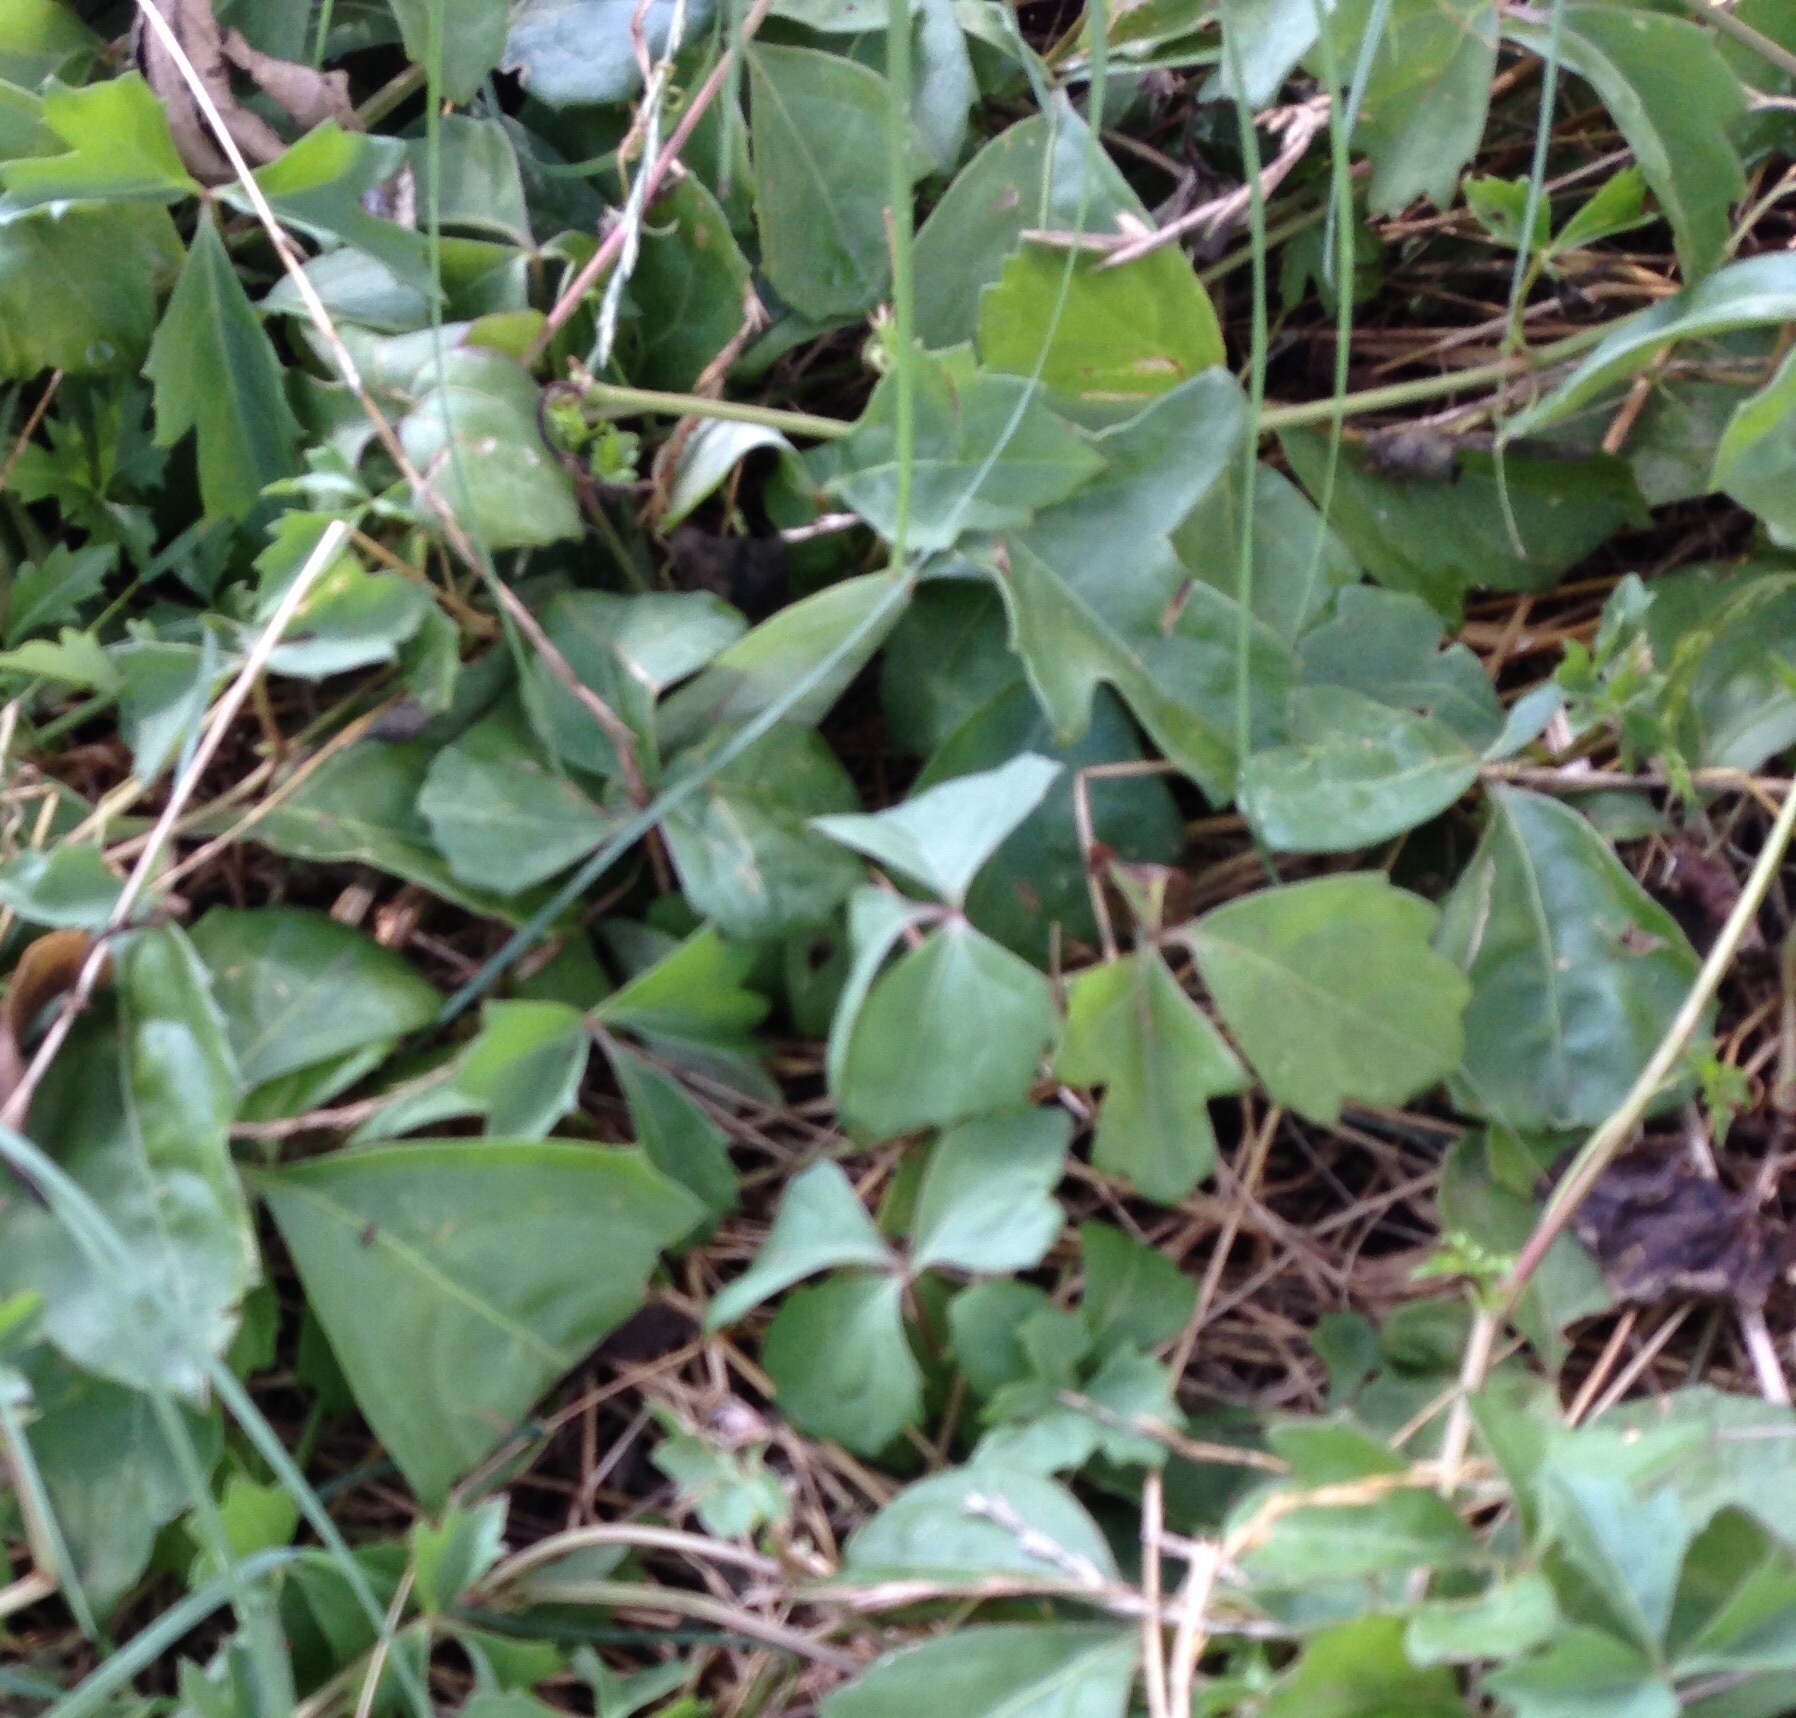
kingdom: Plantae
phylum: Tracheophyta
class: Magnoliopsida
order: Vitales
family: Vitaceae
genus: Cissus
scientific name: Cissus trifoliata
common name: Vine-sorrel
